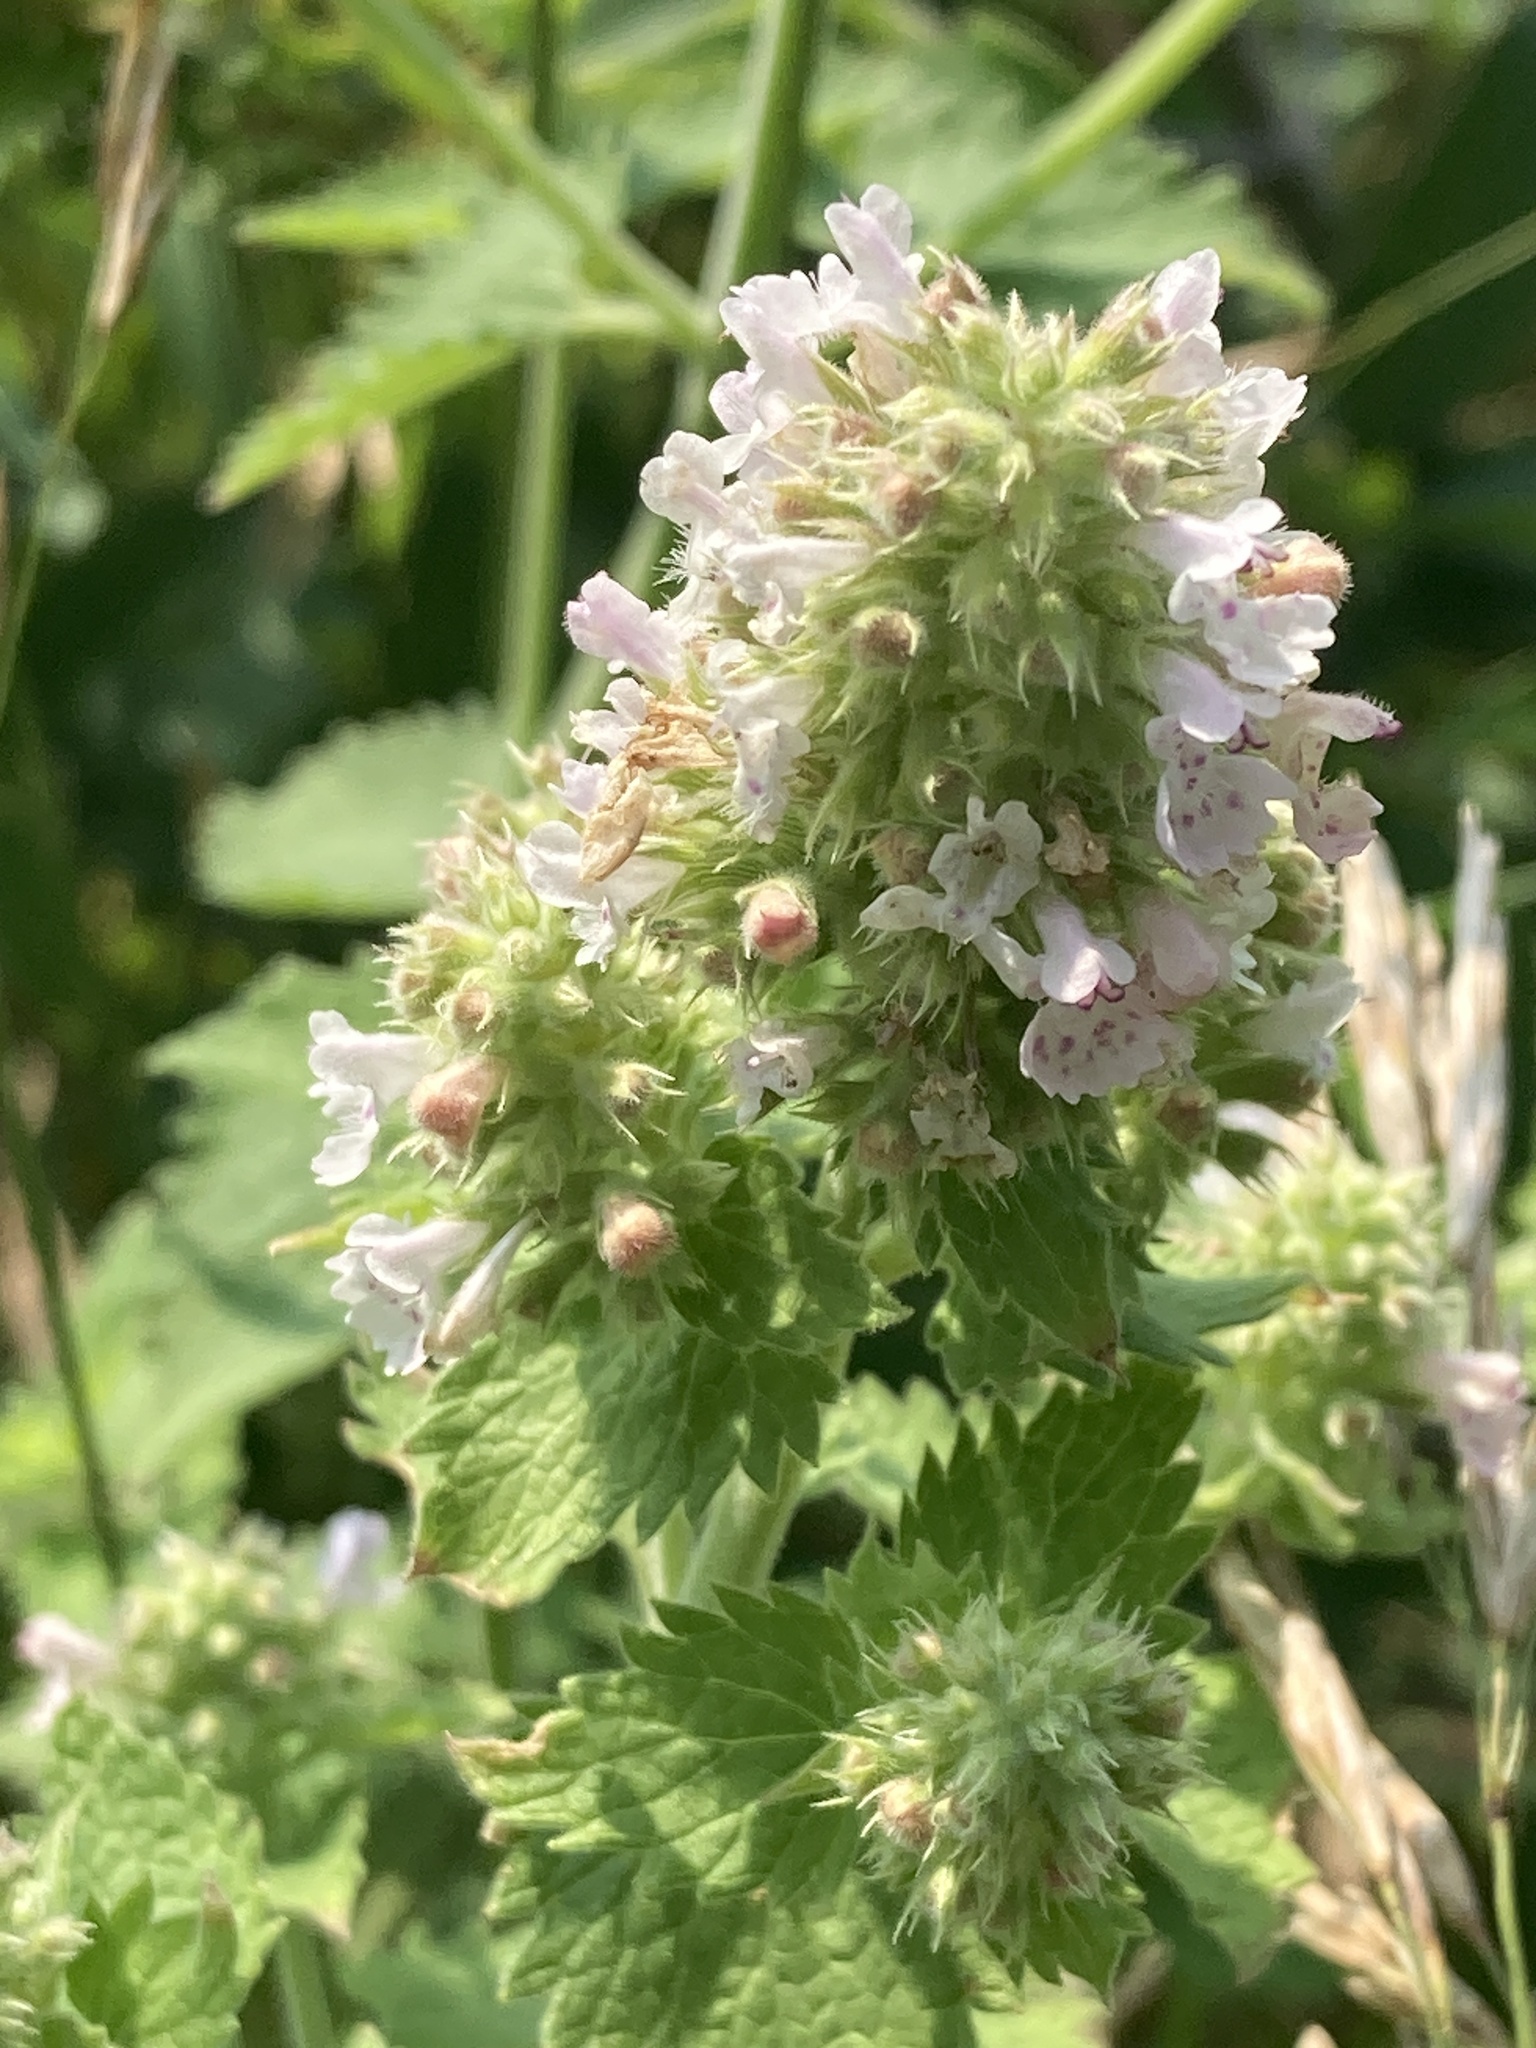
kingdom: Plantae
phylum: Tracheophyta
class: Magnoliopsida
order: Lamiales
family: Lamiaceae
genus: Nepeta
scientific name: Nepeta cataria
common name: Catnip
